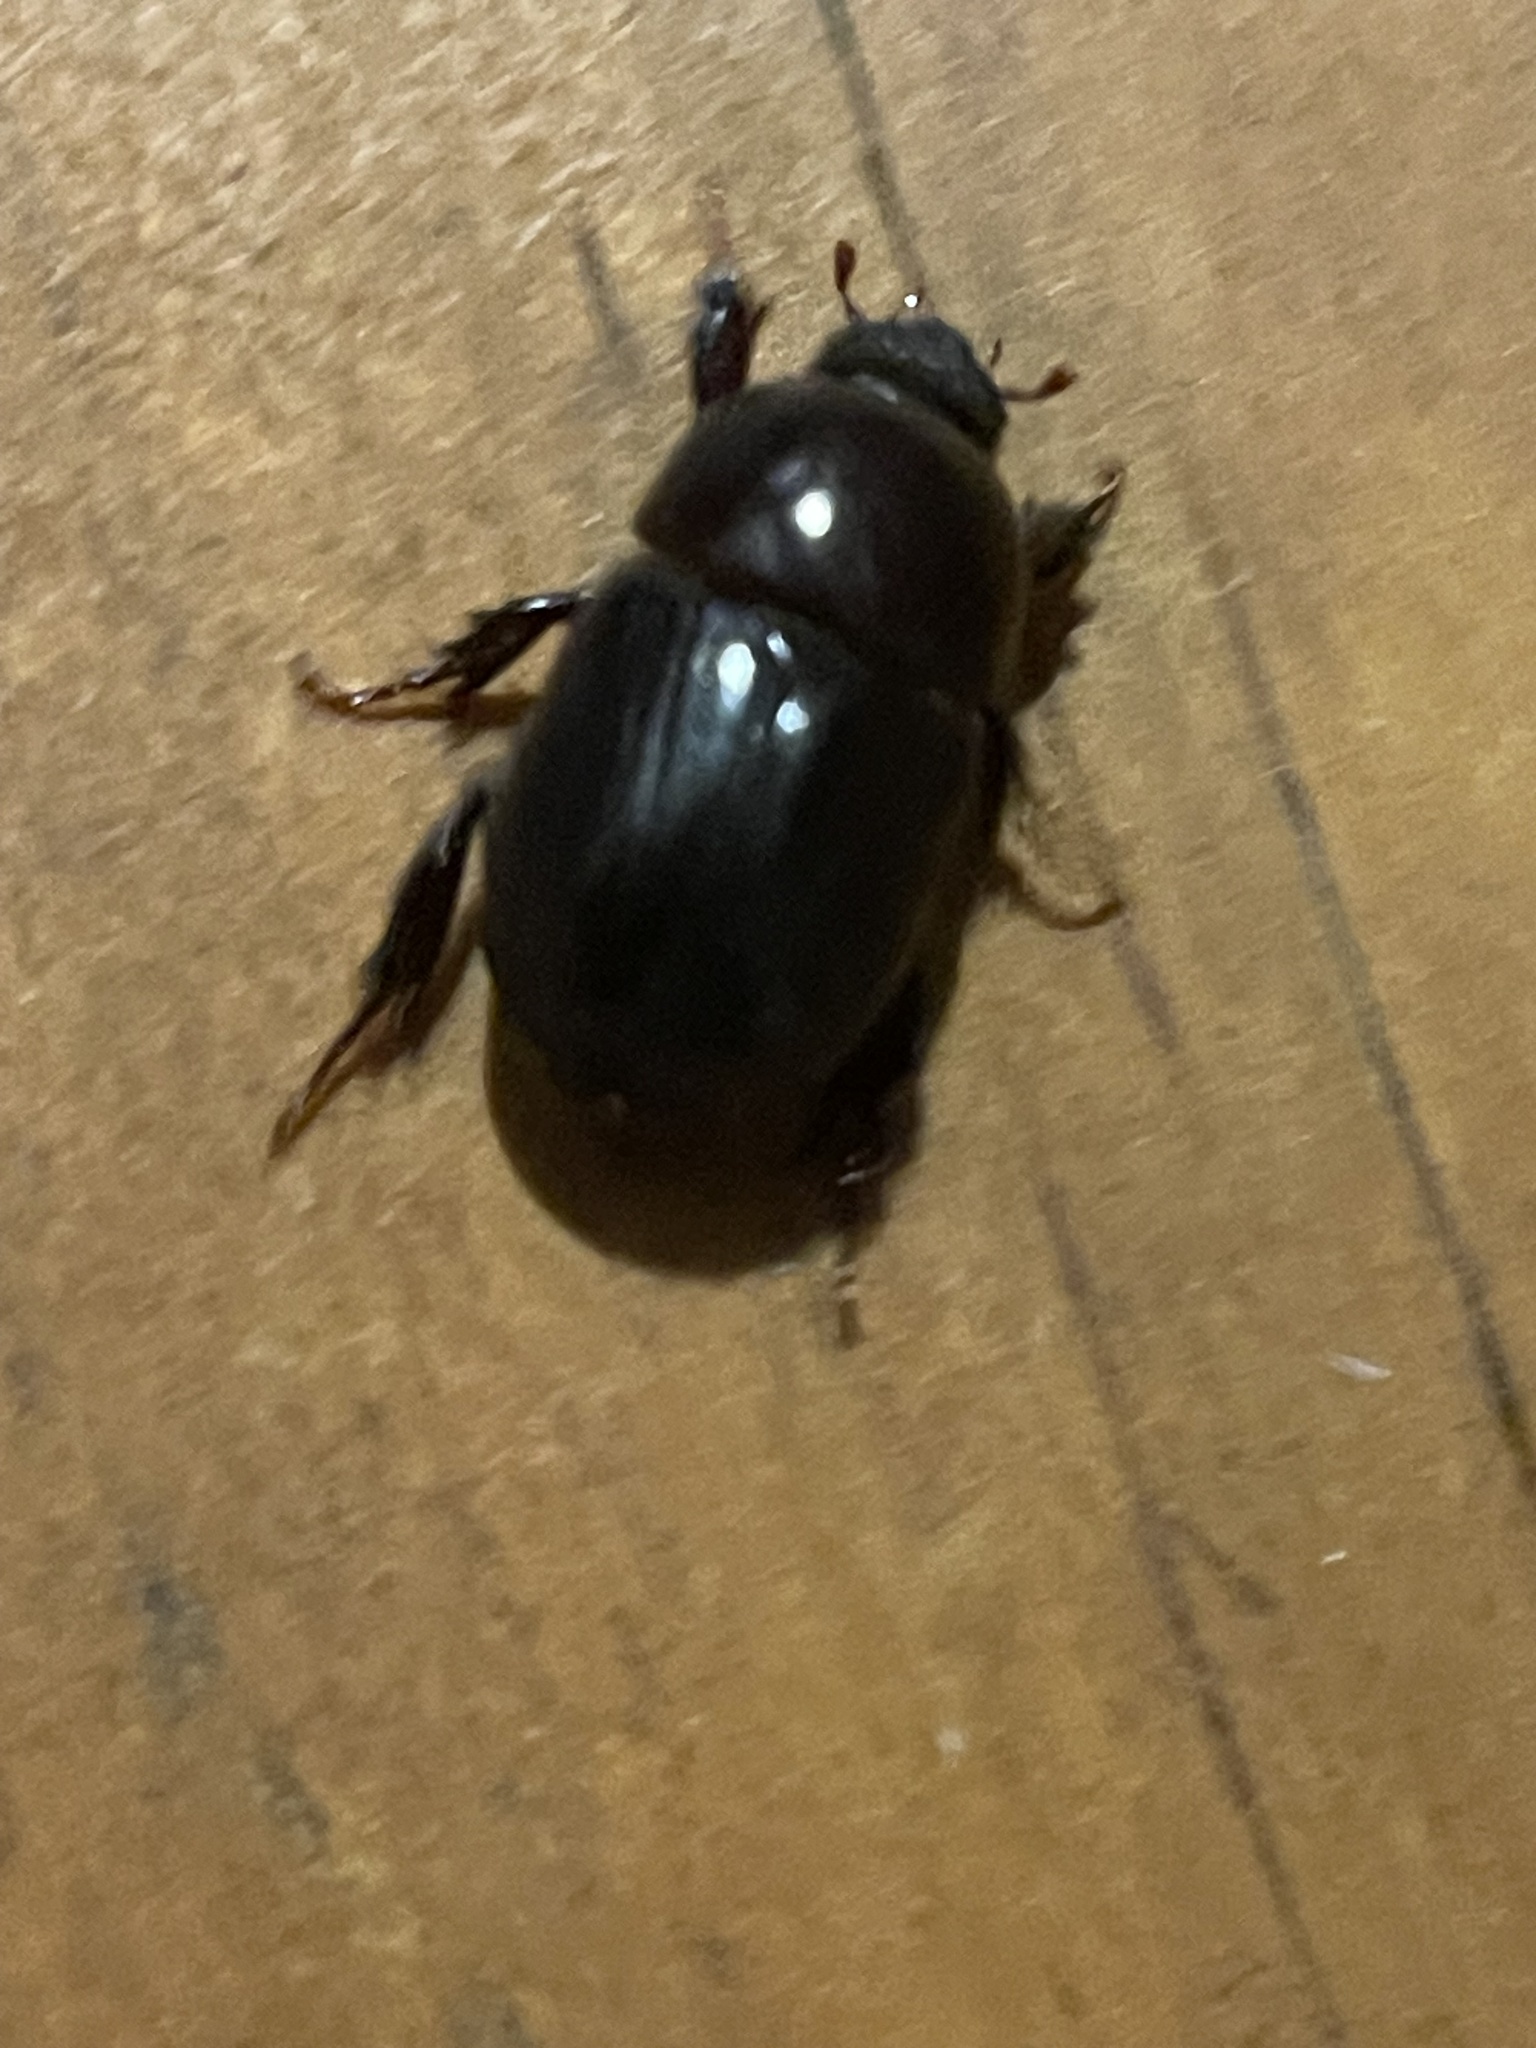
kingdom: Animalia
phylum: Arthropoda
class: Insecta
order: Coleoptera
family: Scarabaeidae
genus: Heteronychus
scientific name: Heteronychus arator
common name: African black beetle
